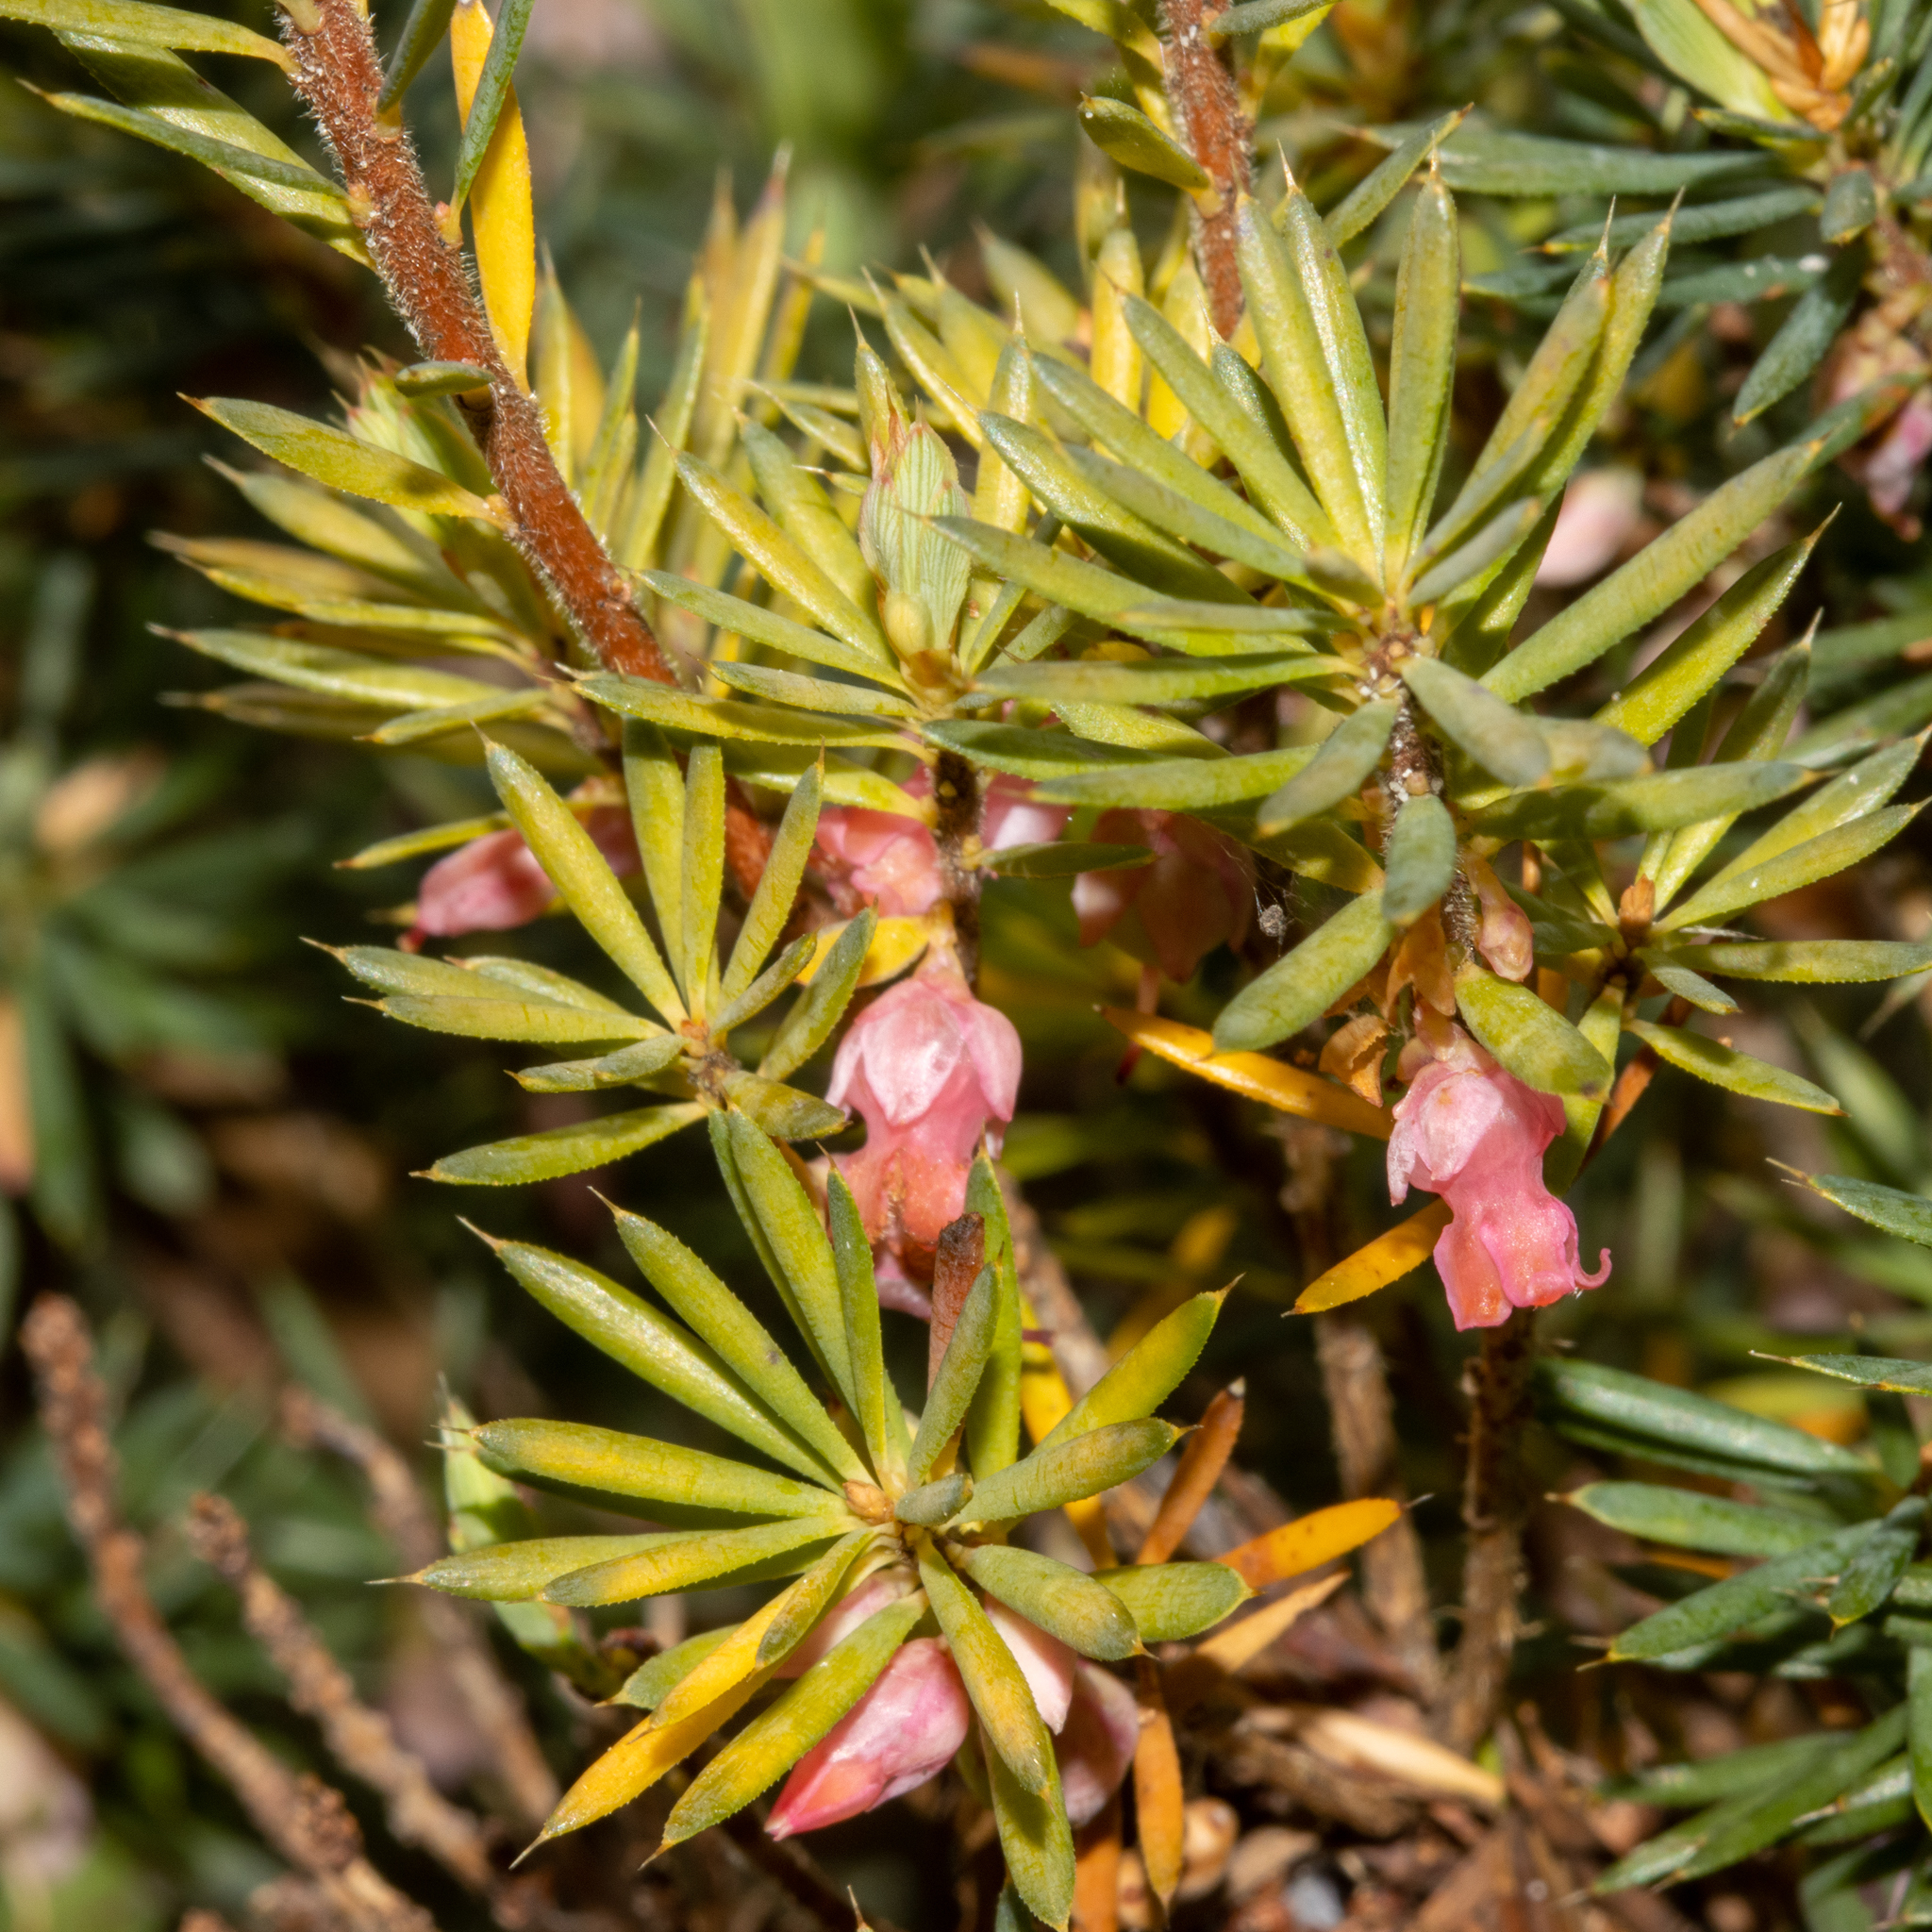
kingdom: Plantae
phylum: Tracheophyta
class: Magnoliopsida
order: Ericales
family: Ericaceae
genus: Brachyloma
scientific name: Brachyloma ericoides
